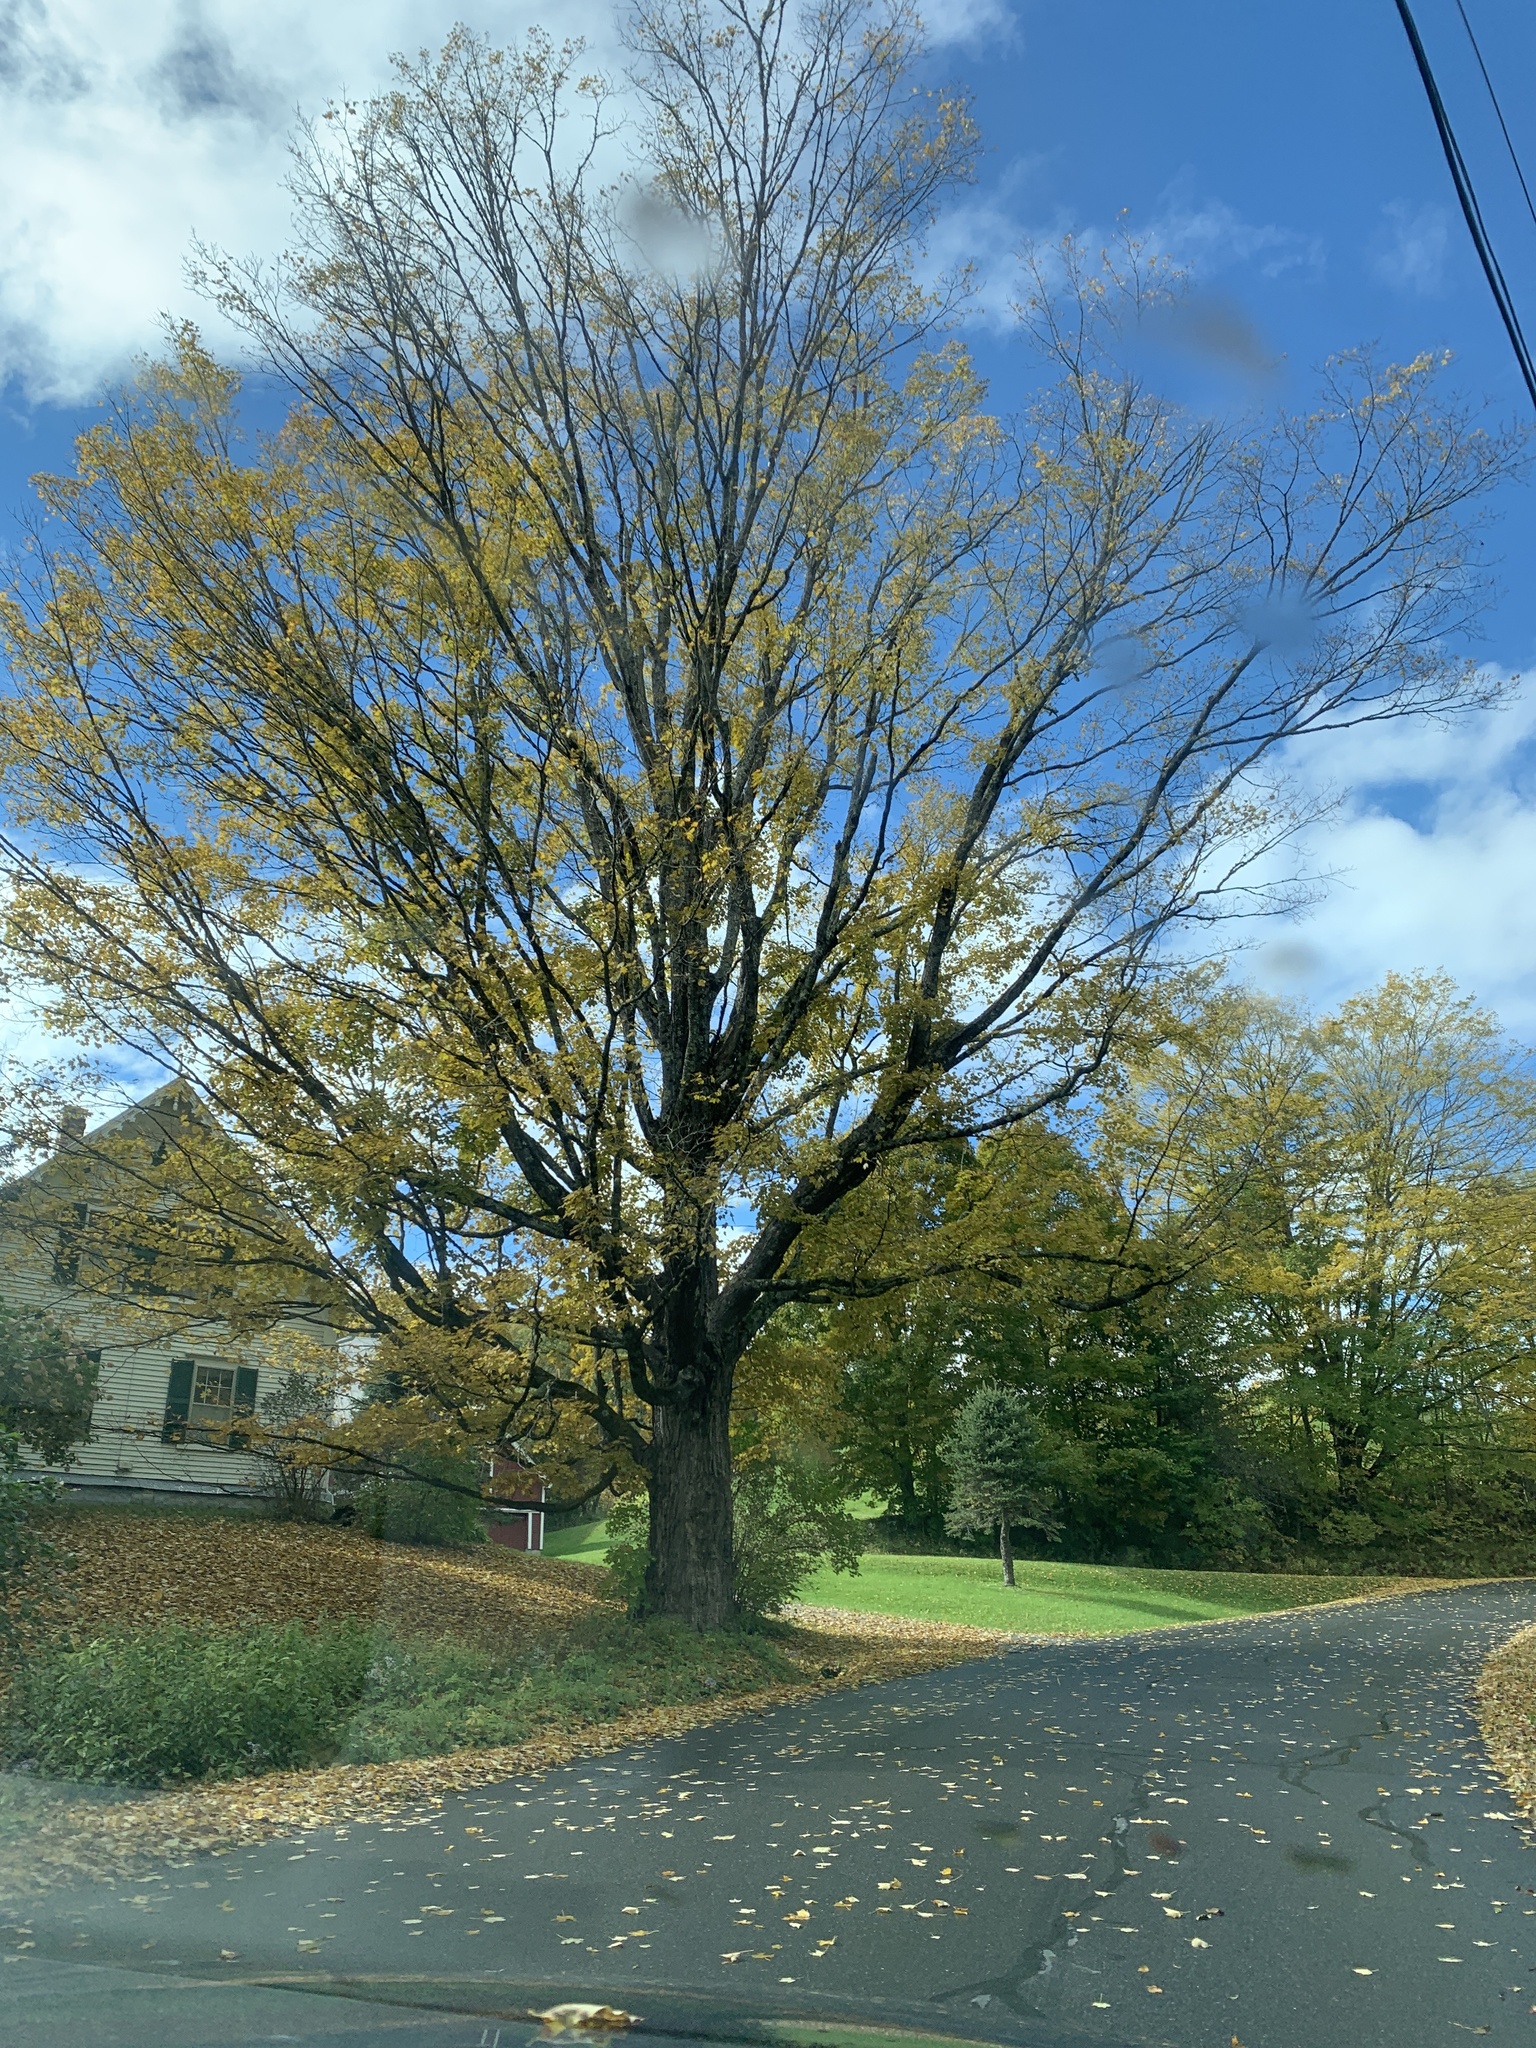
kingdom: Plantae
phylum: Tracheophyta
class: Magnoliopsida
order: Sapindales
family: Sapindaceae
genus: Acer
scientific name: Acer saccharum
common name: Sugar maple
